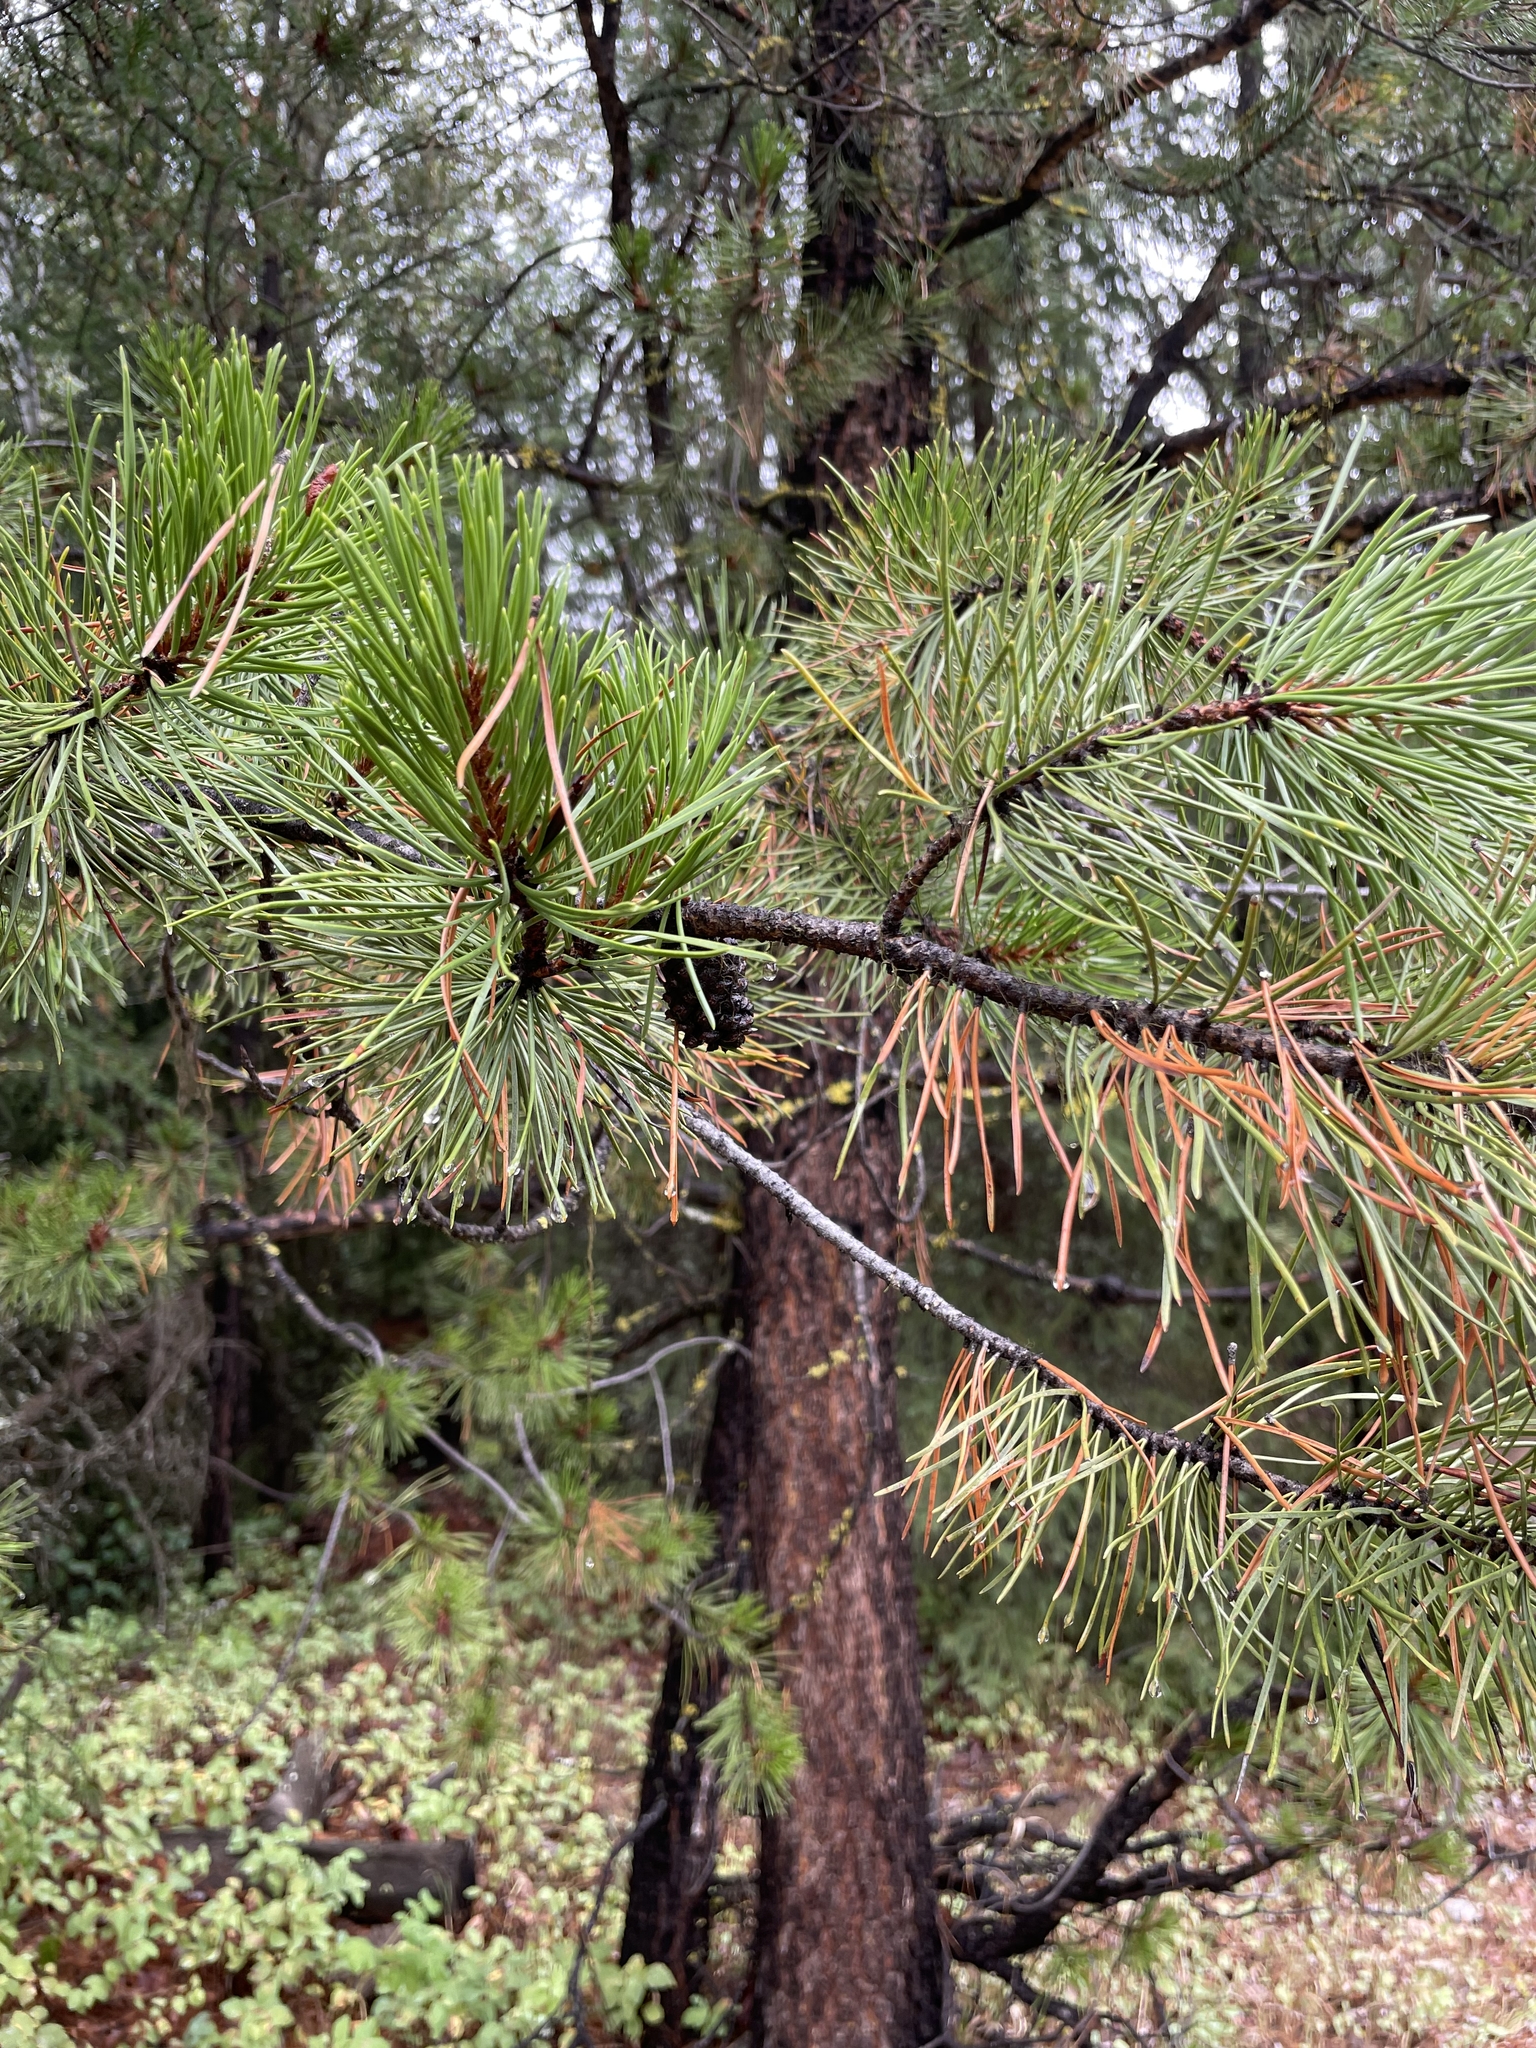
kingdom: Plantae
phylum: Tracheophyta
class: Pinopsida
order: Pinales
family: Pinaceae
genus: Pinus
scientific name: Pinus contorta
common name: Lodgepole pine
